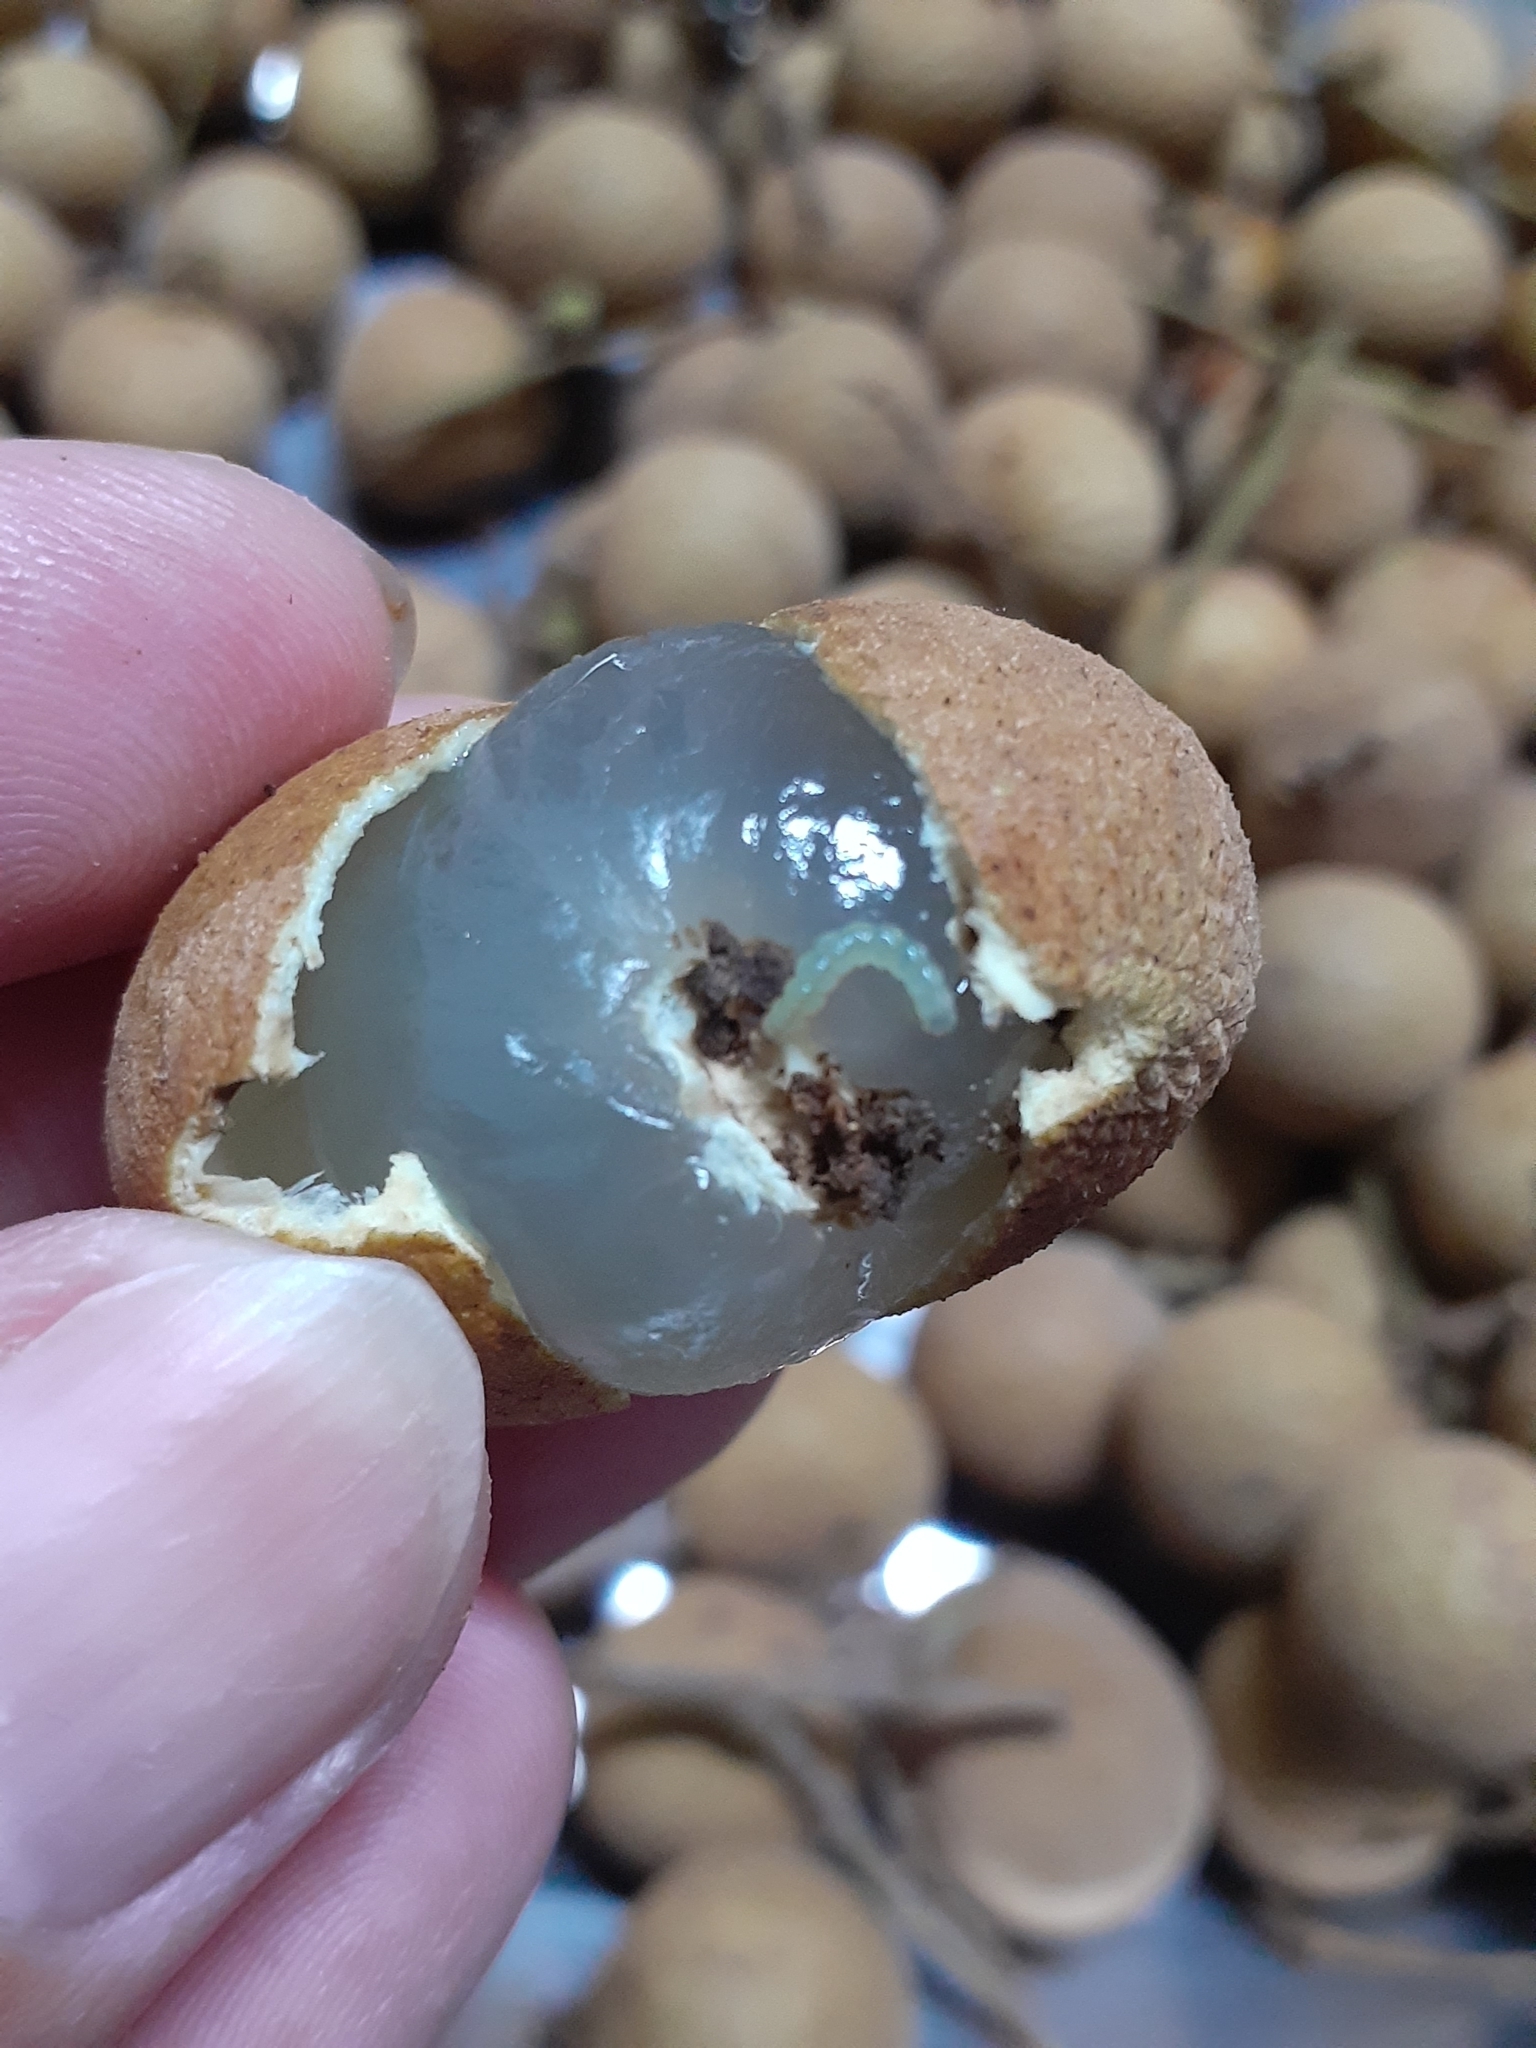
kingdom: Animalia
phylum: Arthropoda
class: Insecta
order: Lepidoptera
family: Gracillariidae
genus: Conopomorpha
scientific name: Conopomorpha sinensis
